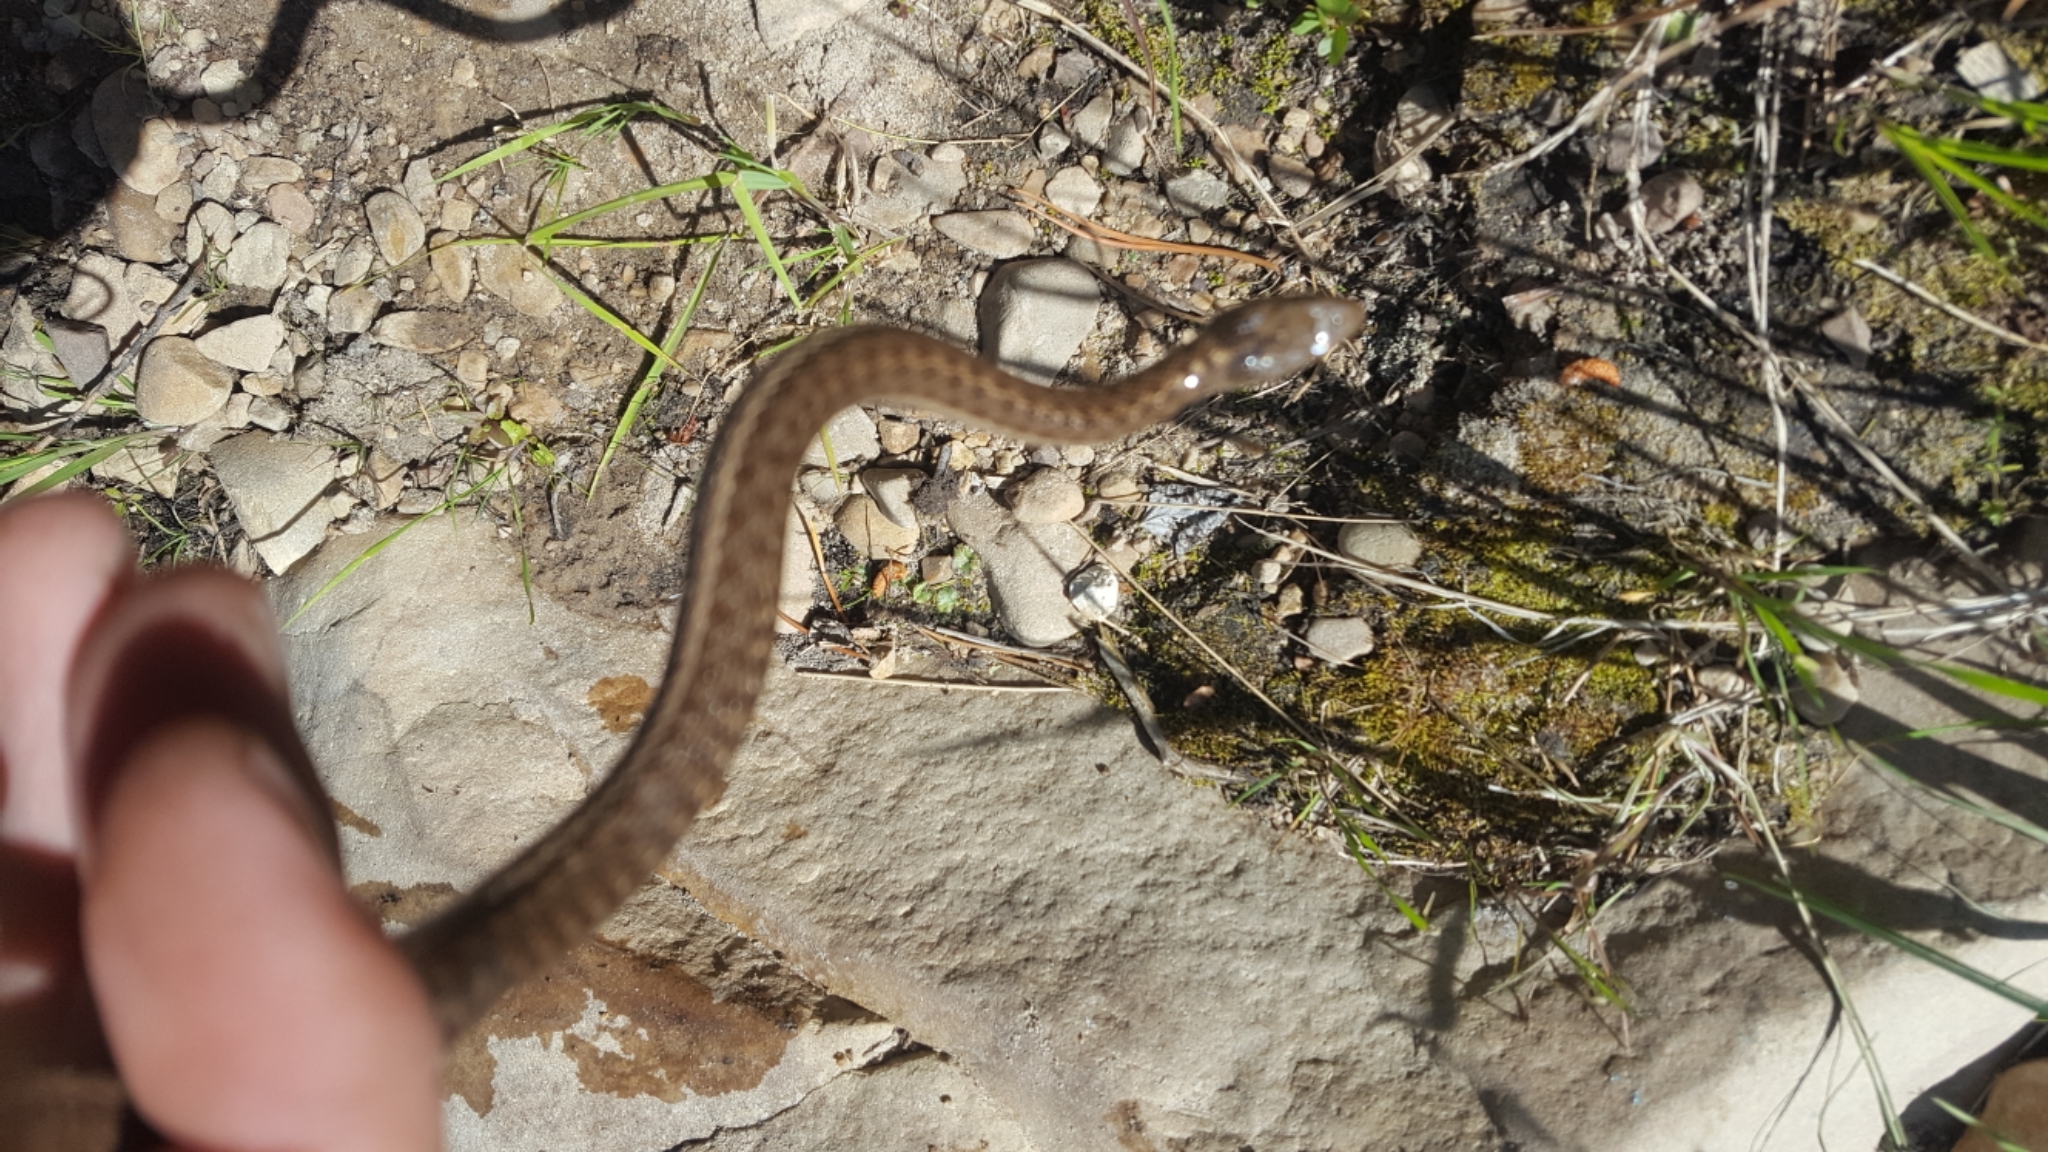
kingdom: Animalia
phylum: Chordata
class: Squamata
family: Colubridae
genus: Thamnophis
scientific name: Thamnophis elegans
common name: Western terrestrial garter snake
